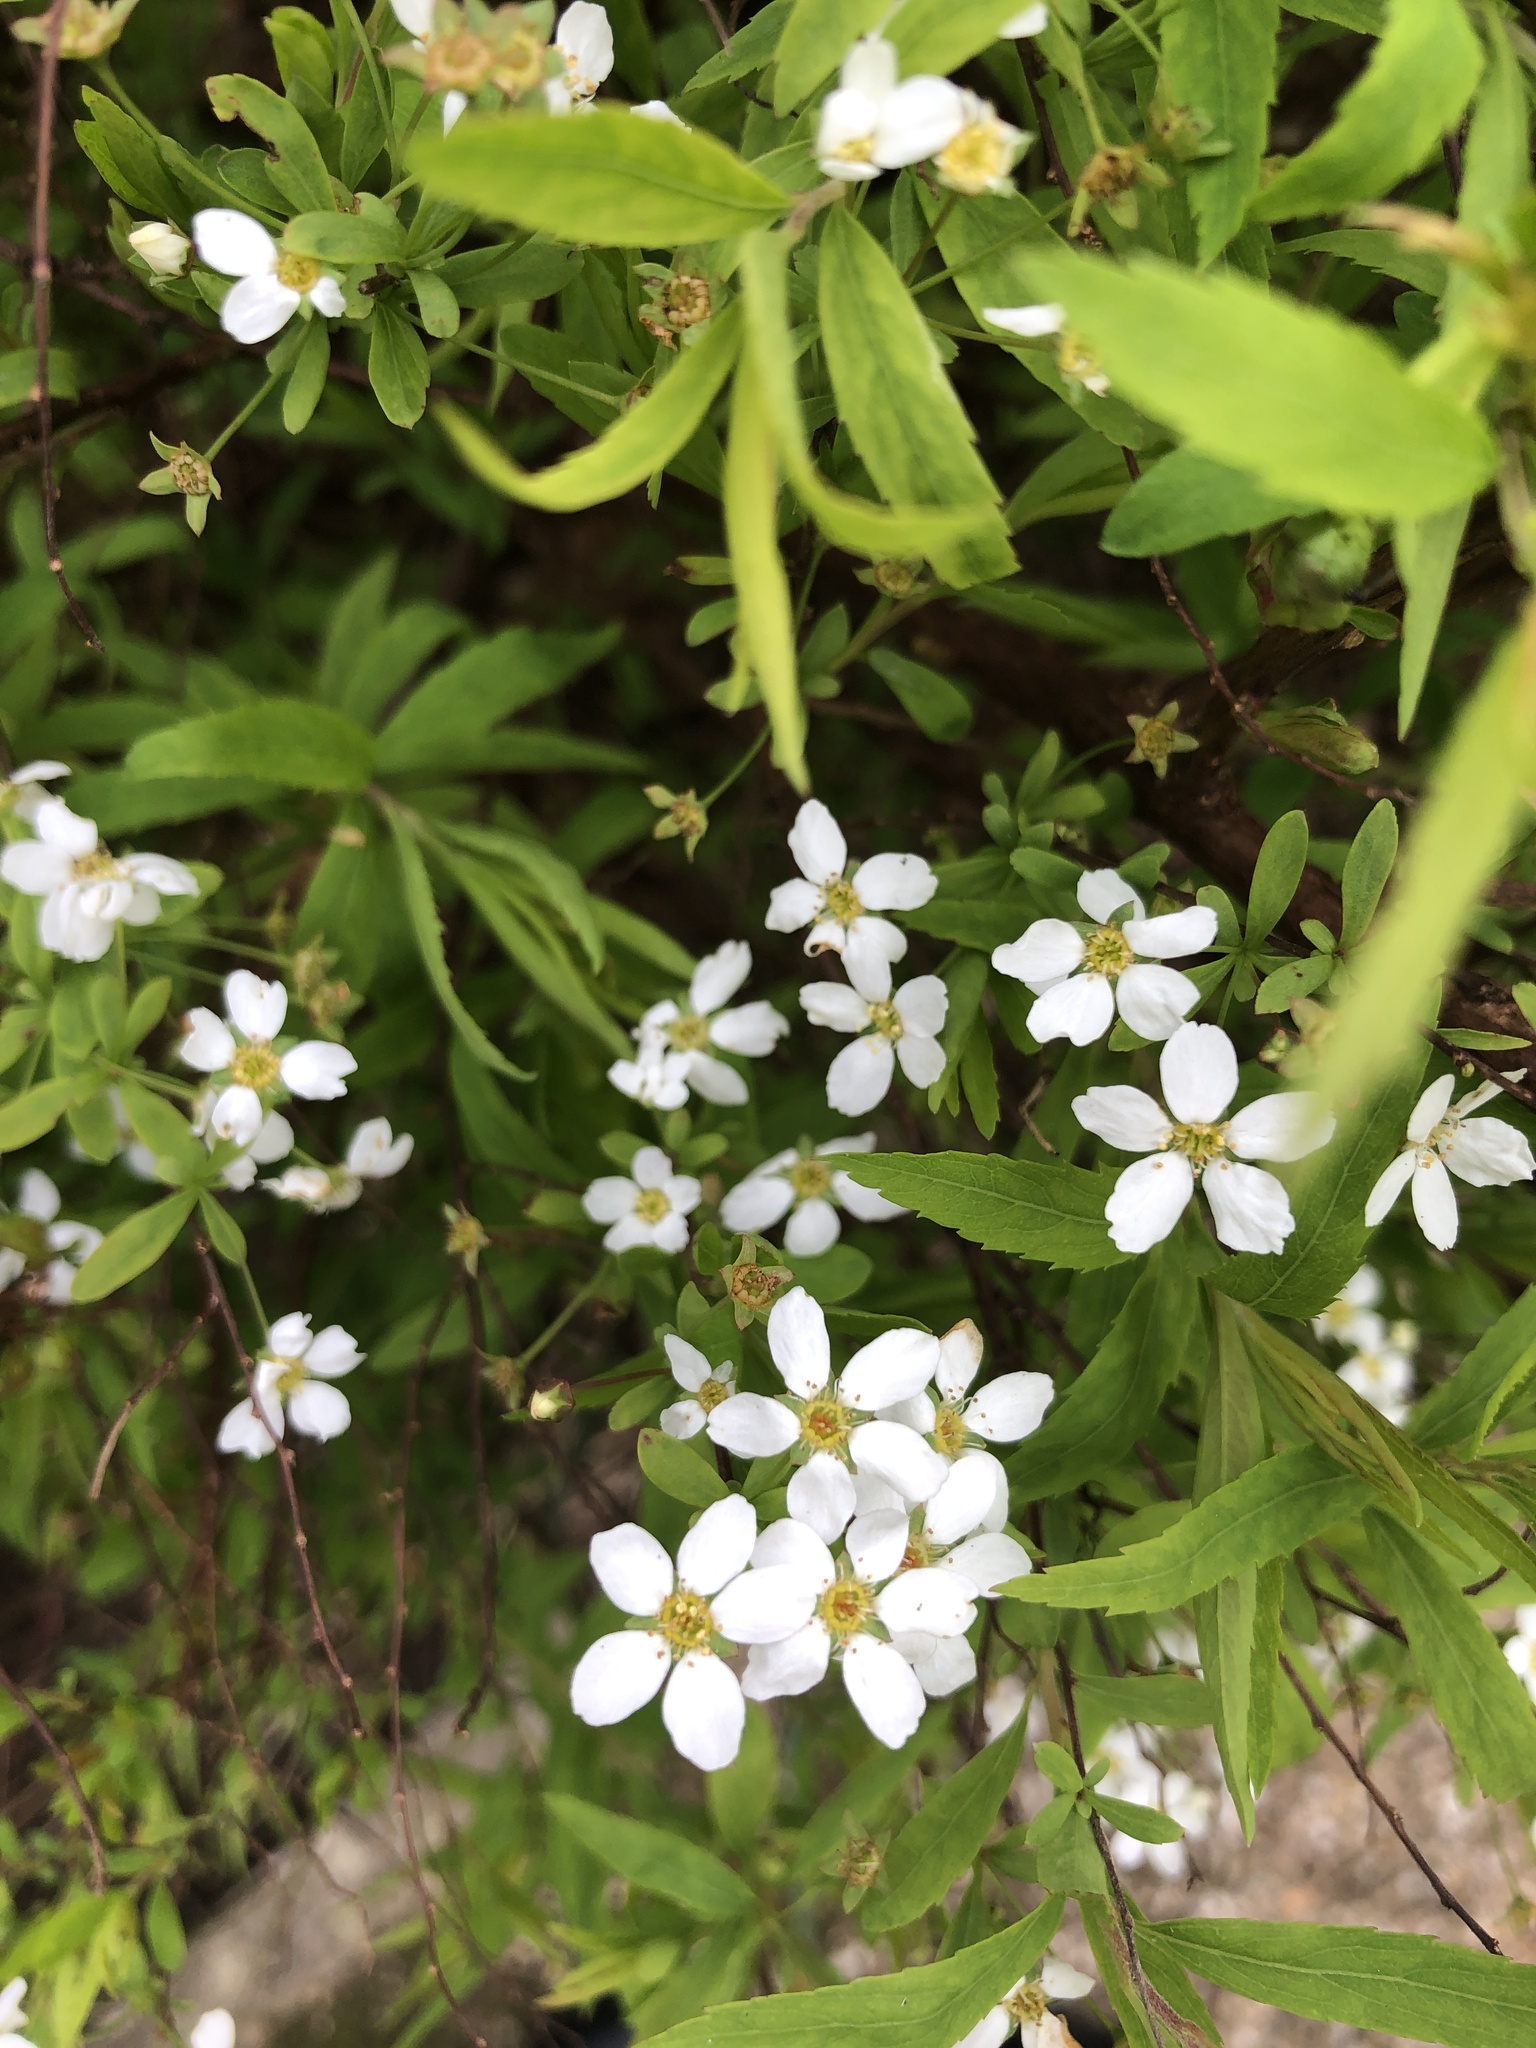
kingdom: Plantae
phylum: Tracheophyta
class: Magnoliopsida
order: Rosales
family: Rosaceae
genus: Spiraea
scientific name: Spiraea thunbergii
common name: Thunberg's meadowsweet
